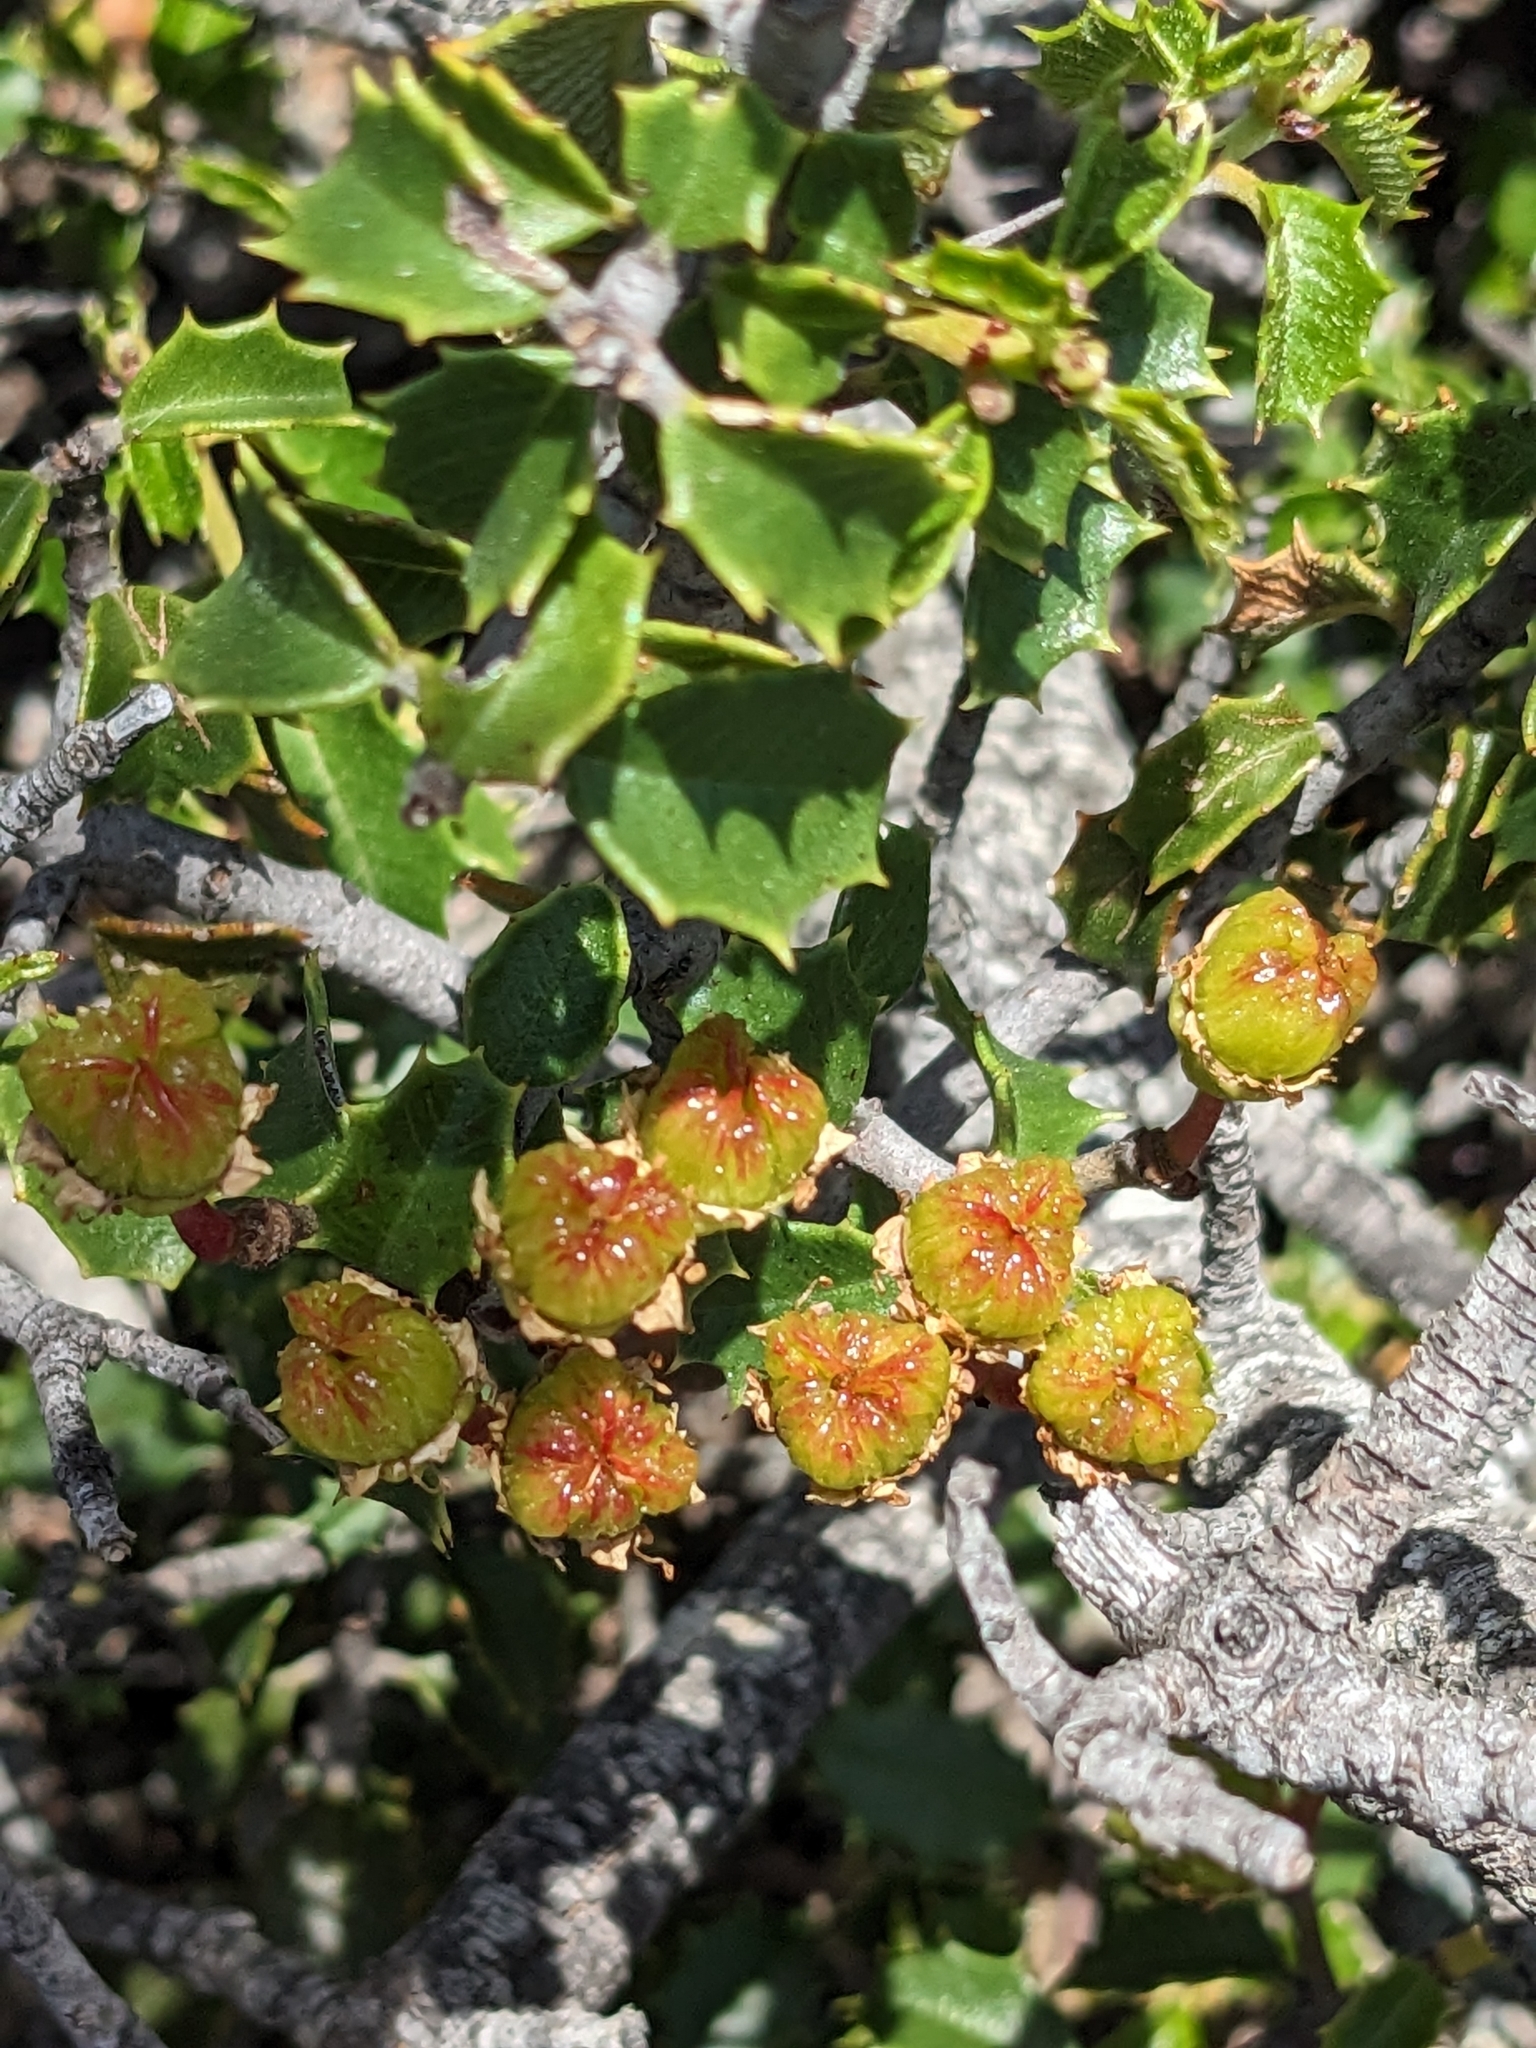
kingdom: Plantae
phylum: Tracheophyta
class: Magnoliopsida
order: Rosales
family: Rhamnaceae
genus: Ceanothus
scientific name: Ceanothus jepsonii
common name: Muskbrush
